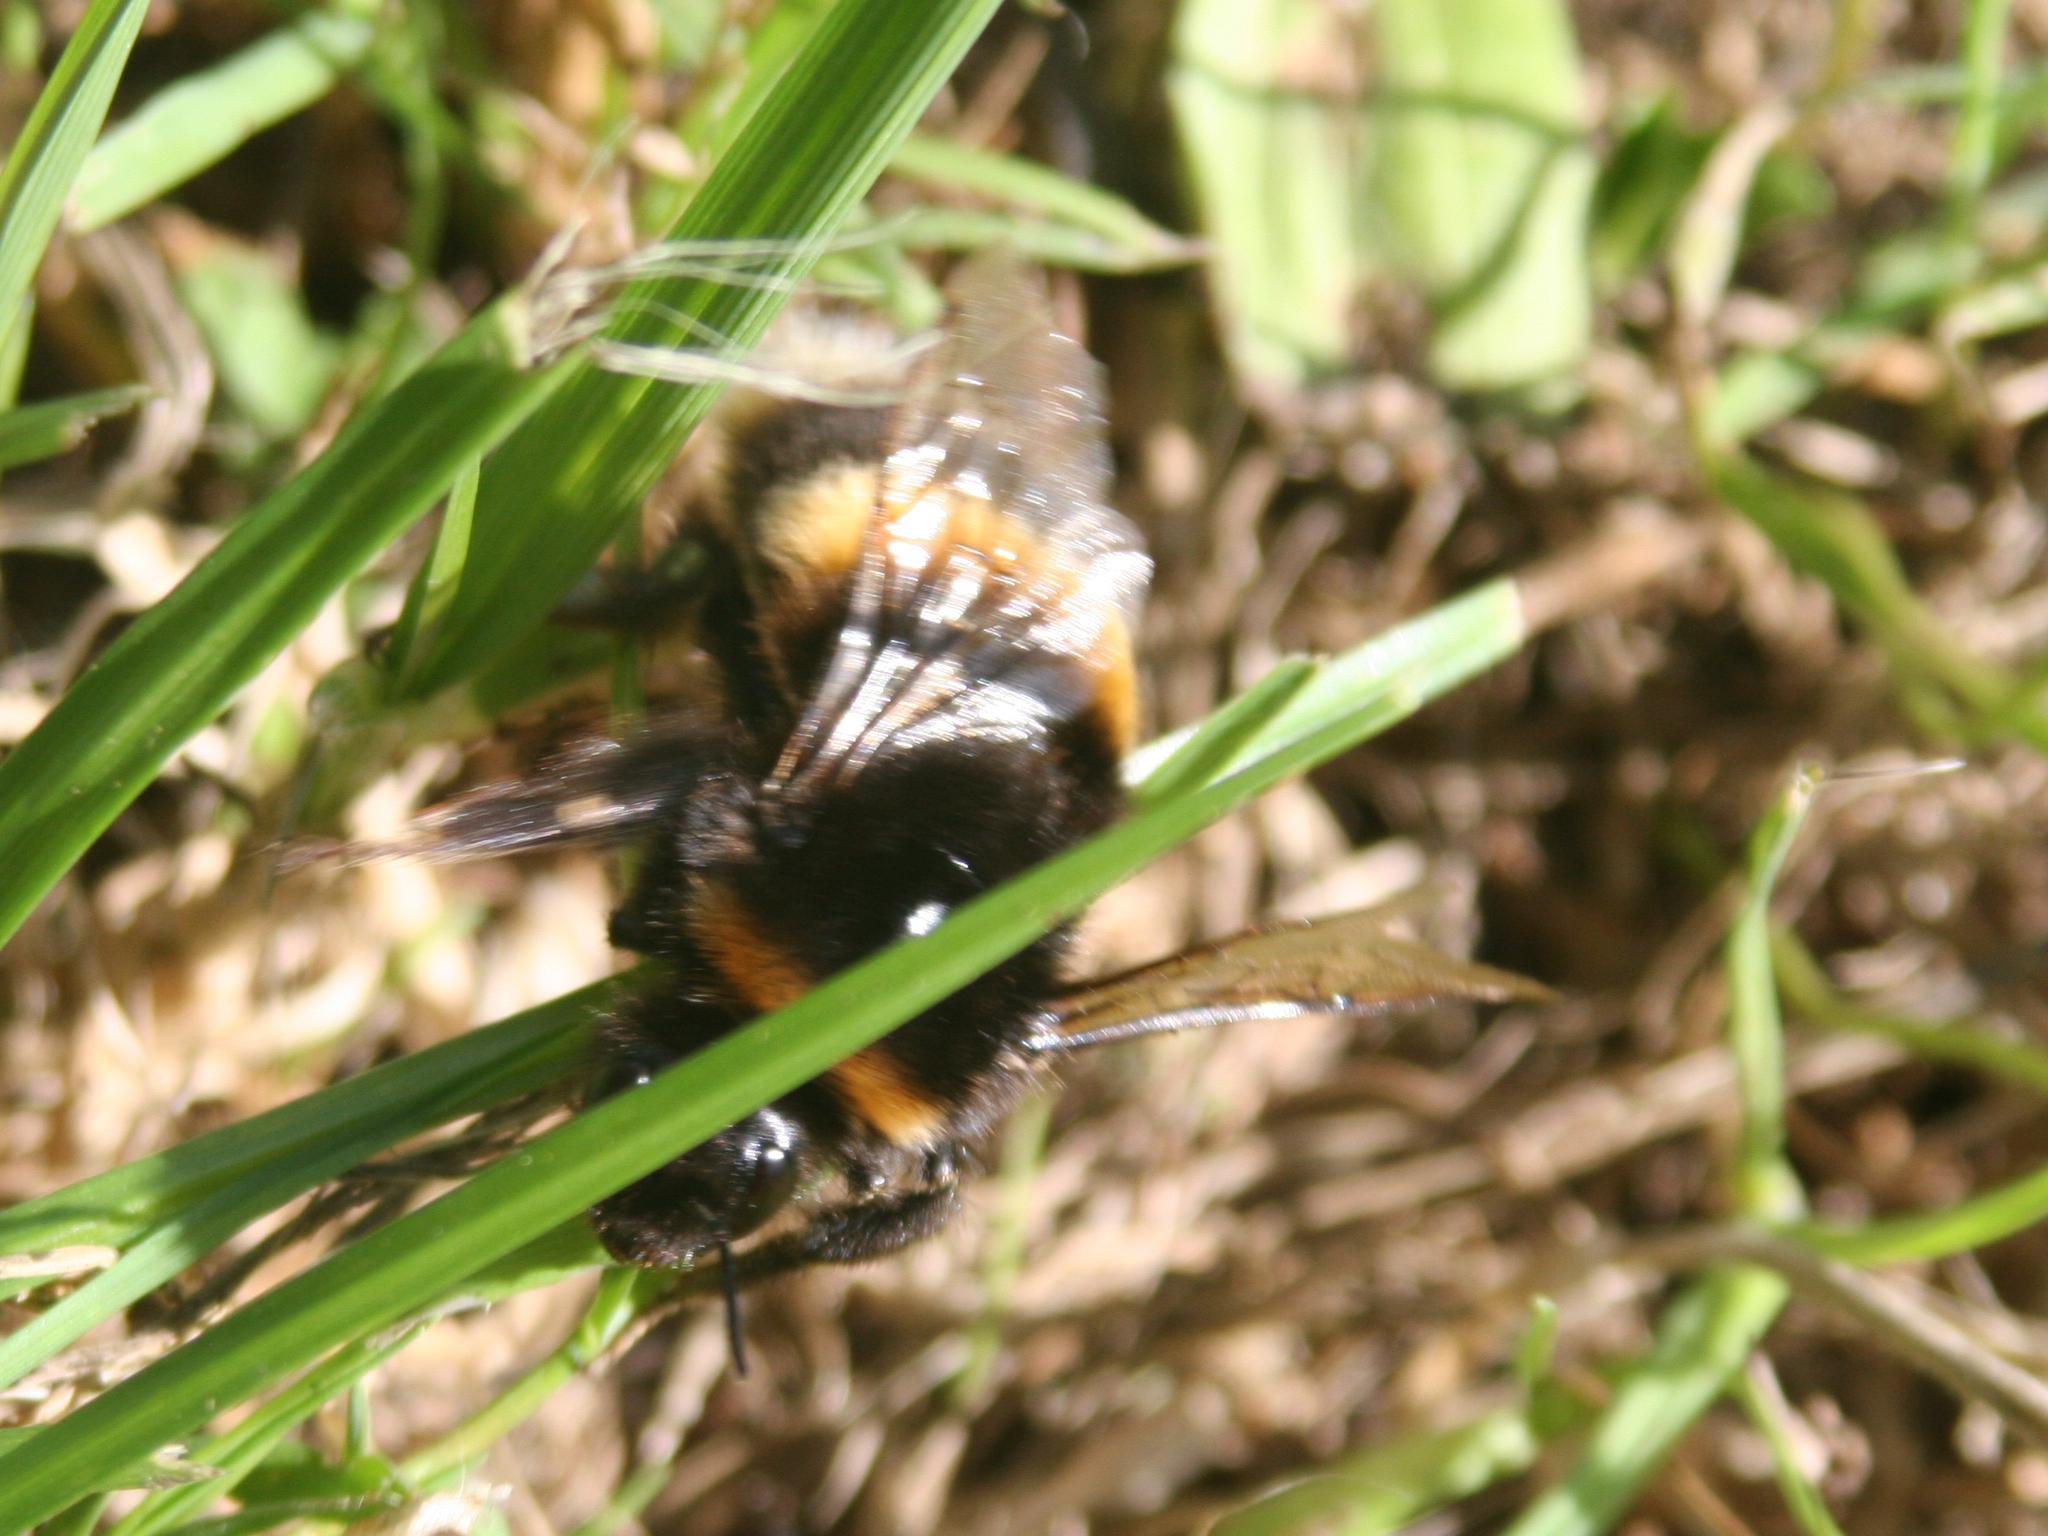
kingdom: Animalia
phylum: Arthropoda
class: Insecta
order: Hymenoptera
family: Apidae
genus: Bombus
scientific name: Bombus terrestris
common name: Buff-tailed bumblebee
